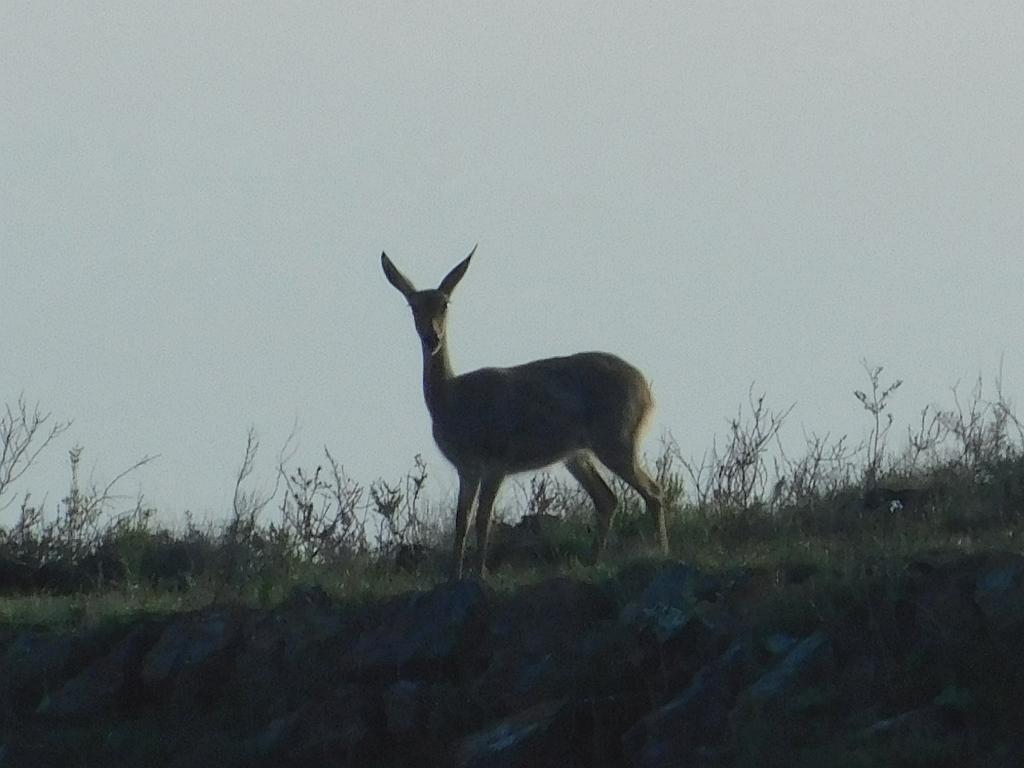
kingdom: Animalia
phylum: Chordata
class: Mammalia
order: Artiodactyla
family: Bovidae
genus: Pelea
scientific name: Pelea capreolus
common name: Common rhebok
